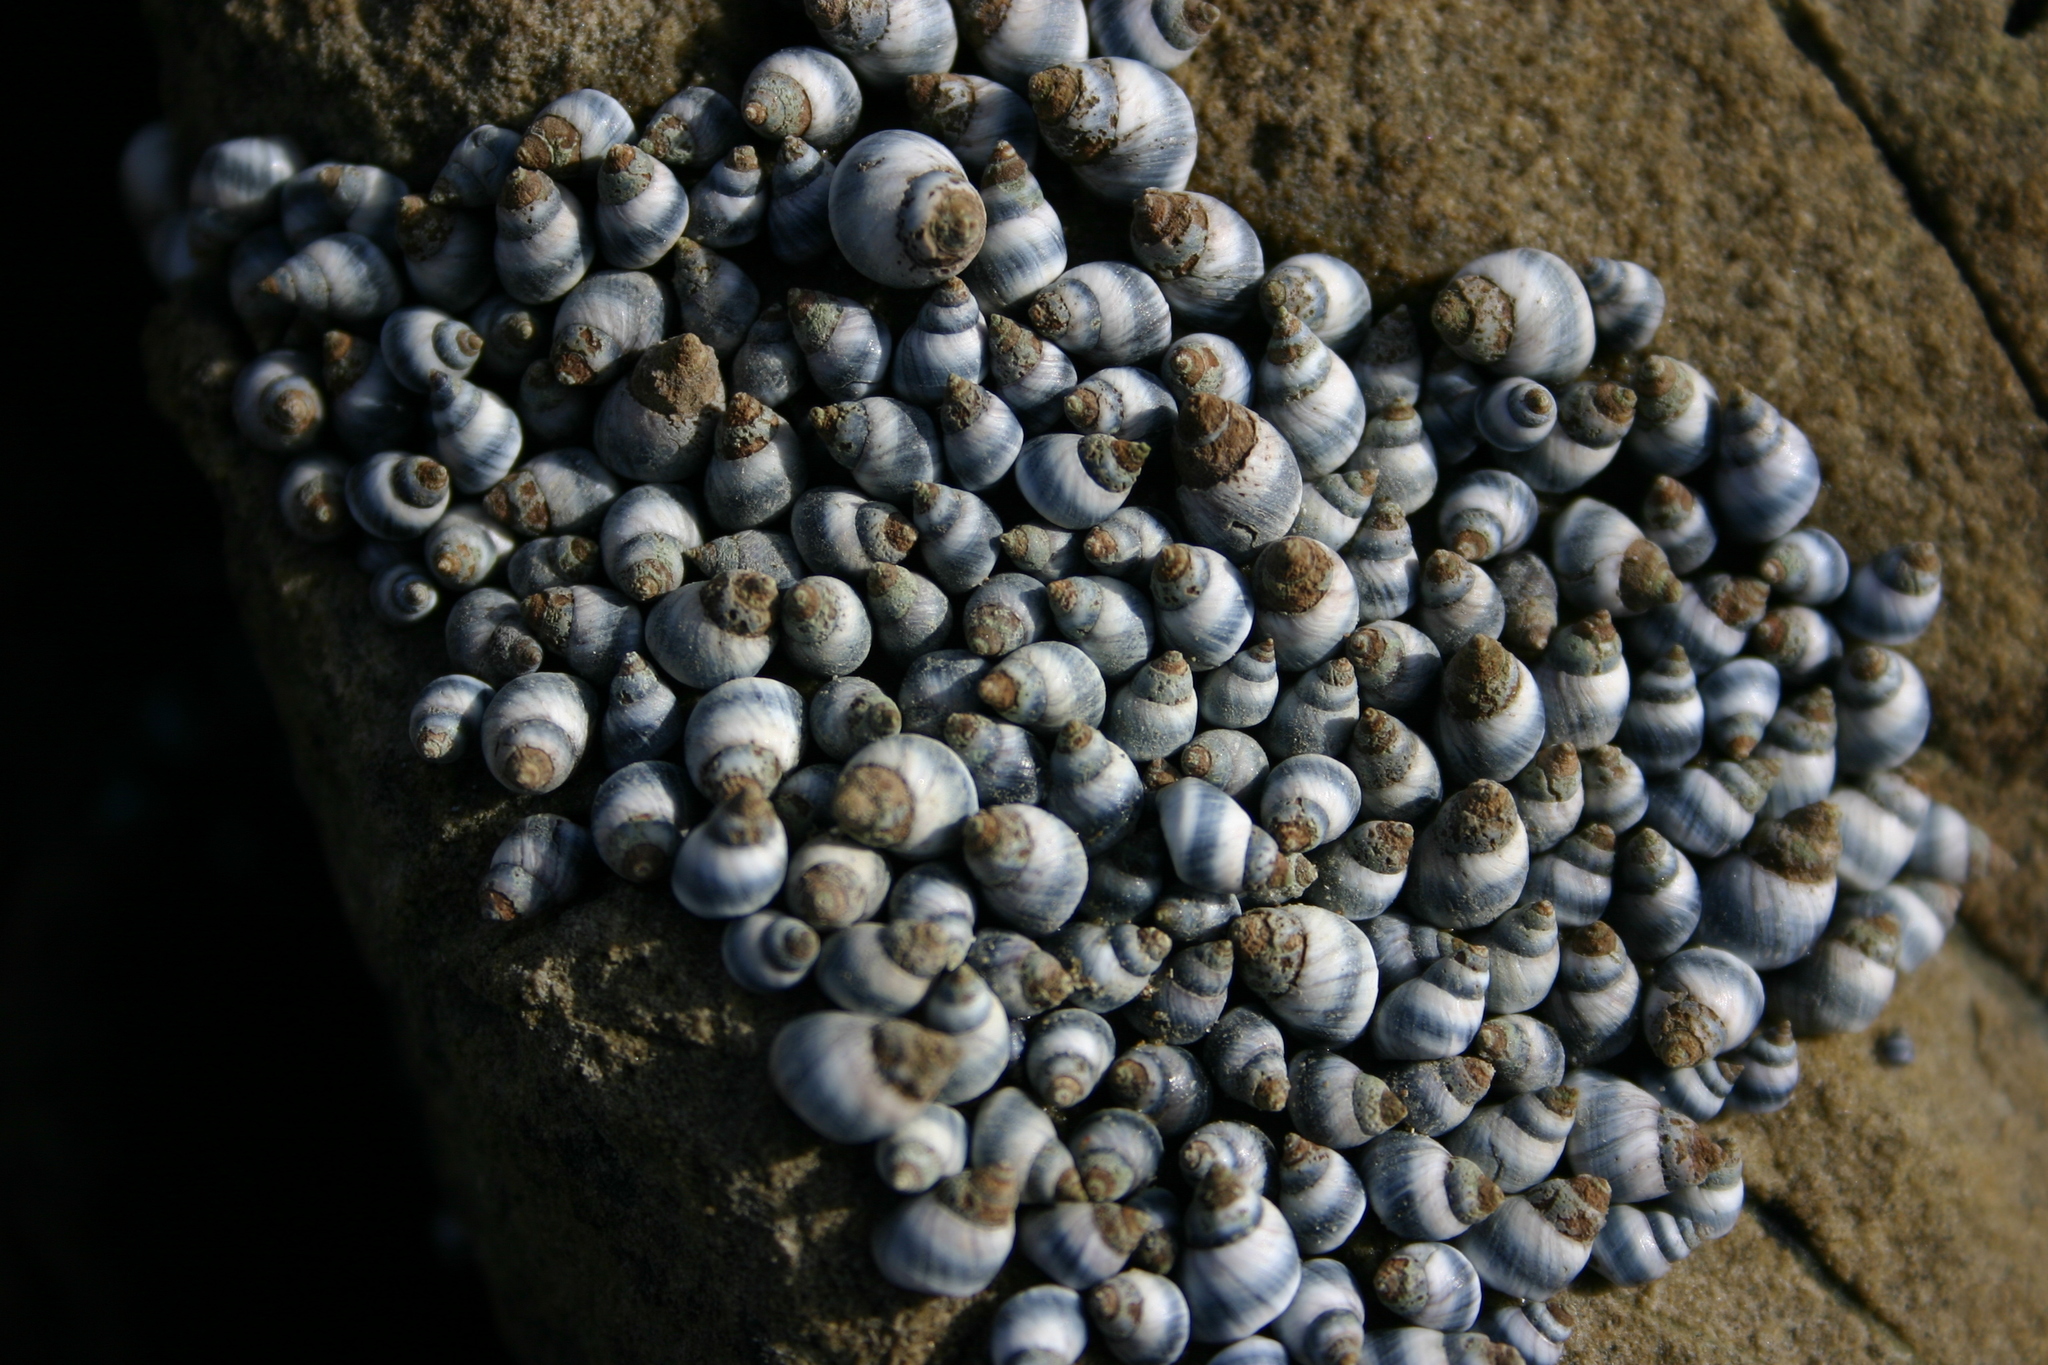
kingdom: Animalia
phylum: Mollusca
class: Gastropoda
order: Littorinimorpha
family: Littorinidae
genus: Austrolittorina
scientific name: Austrolittorina antipodum
